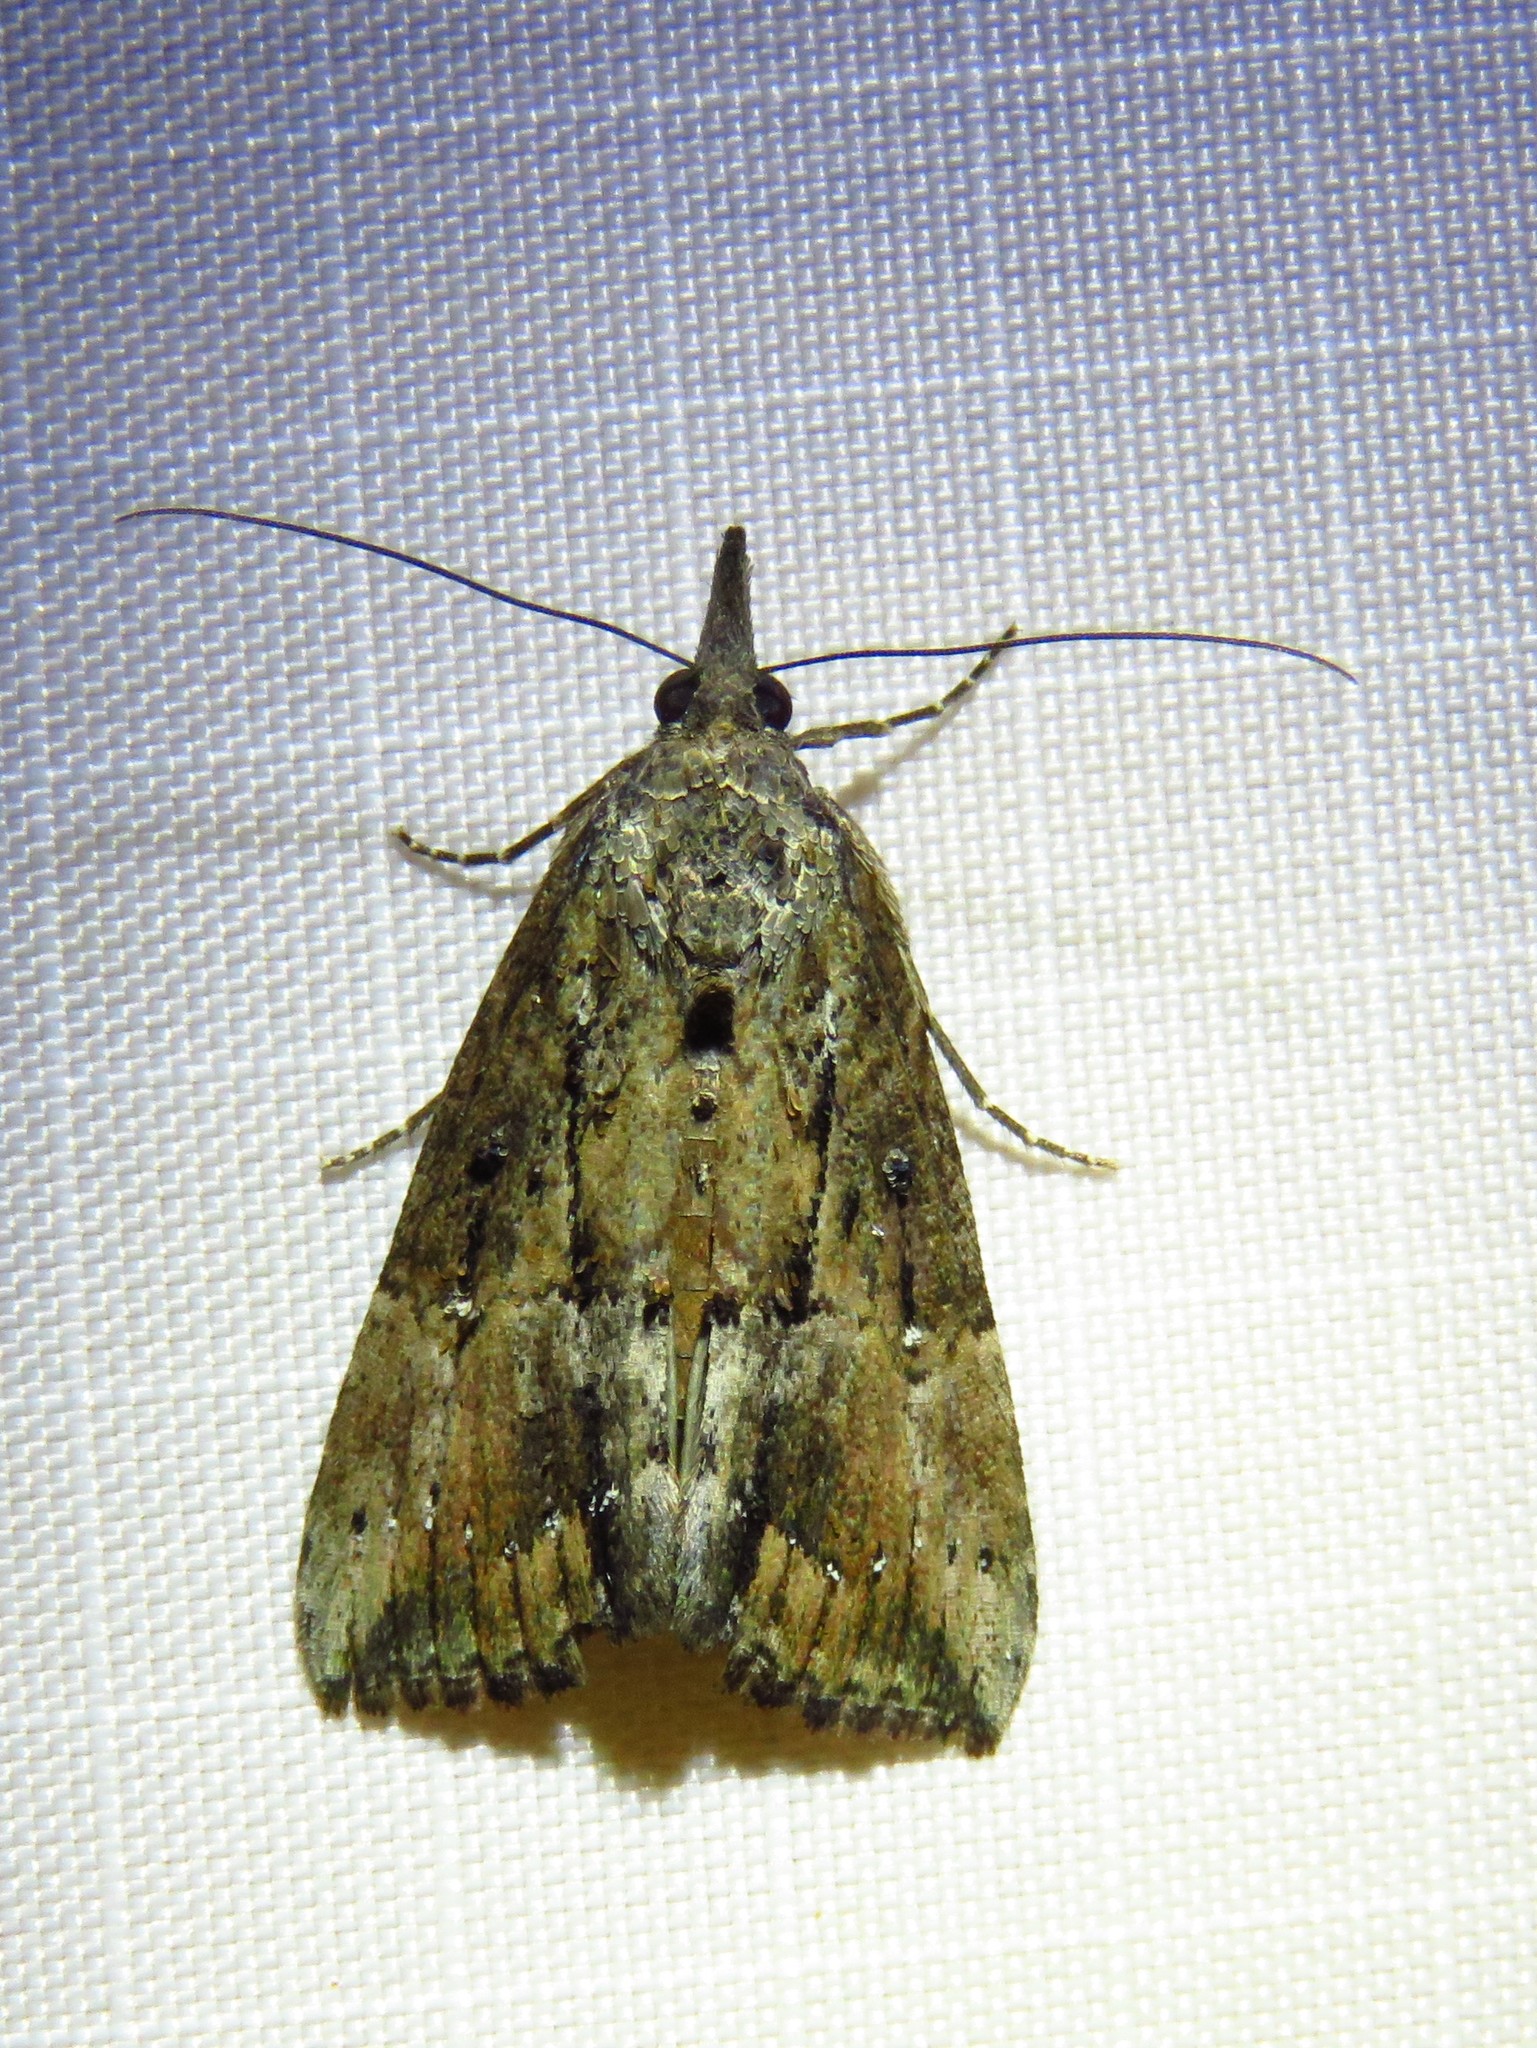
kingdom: Animalia
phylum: Arthropoda
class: Insecta
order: Lepidoptera
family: Erebidae
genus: Hypena
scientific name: Hypena scabra
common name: Green cloverworm
